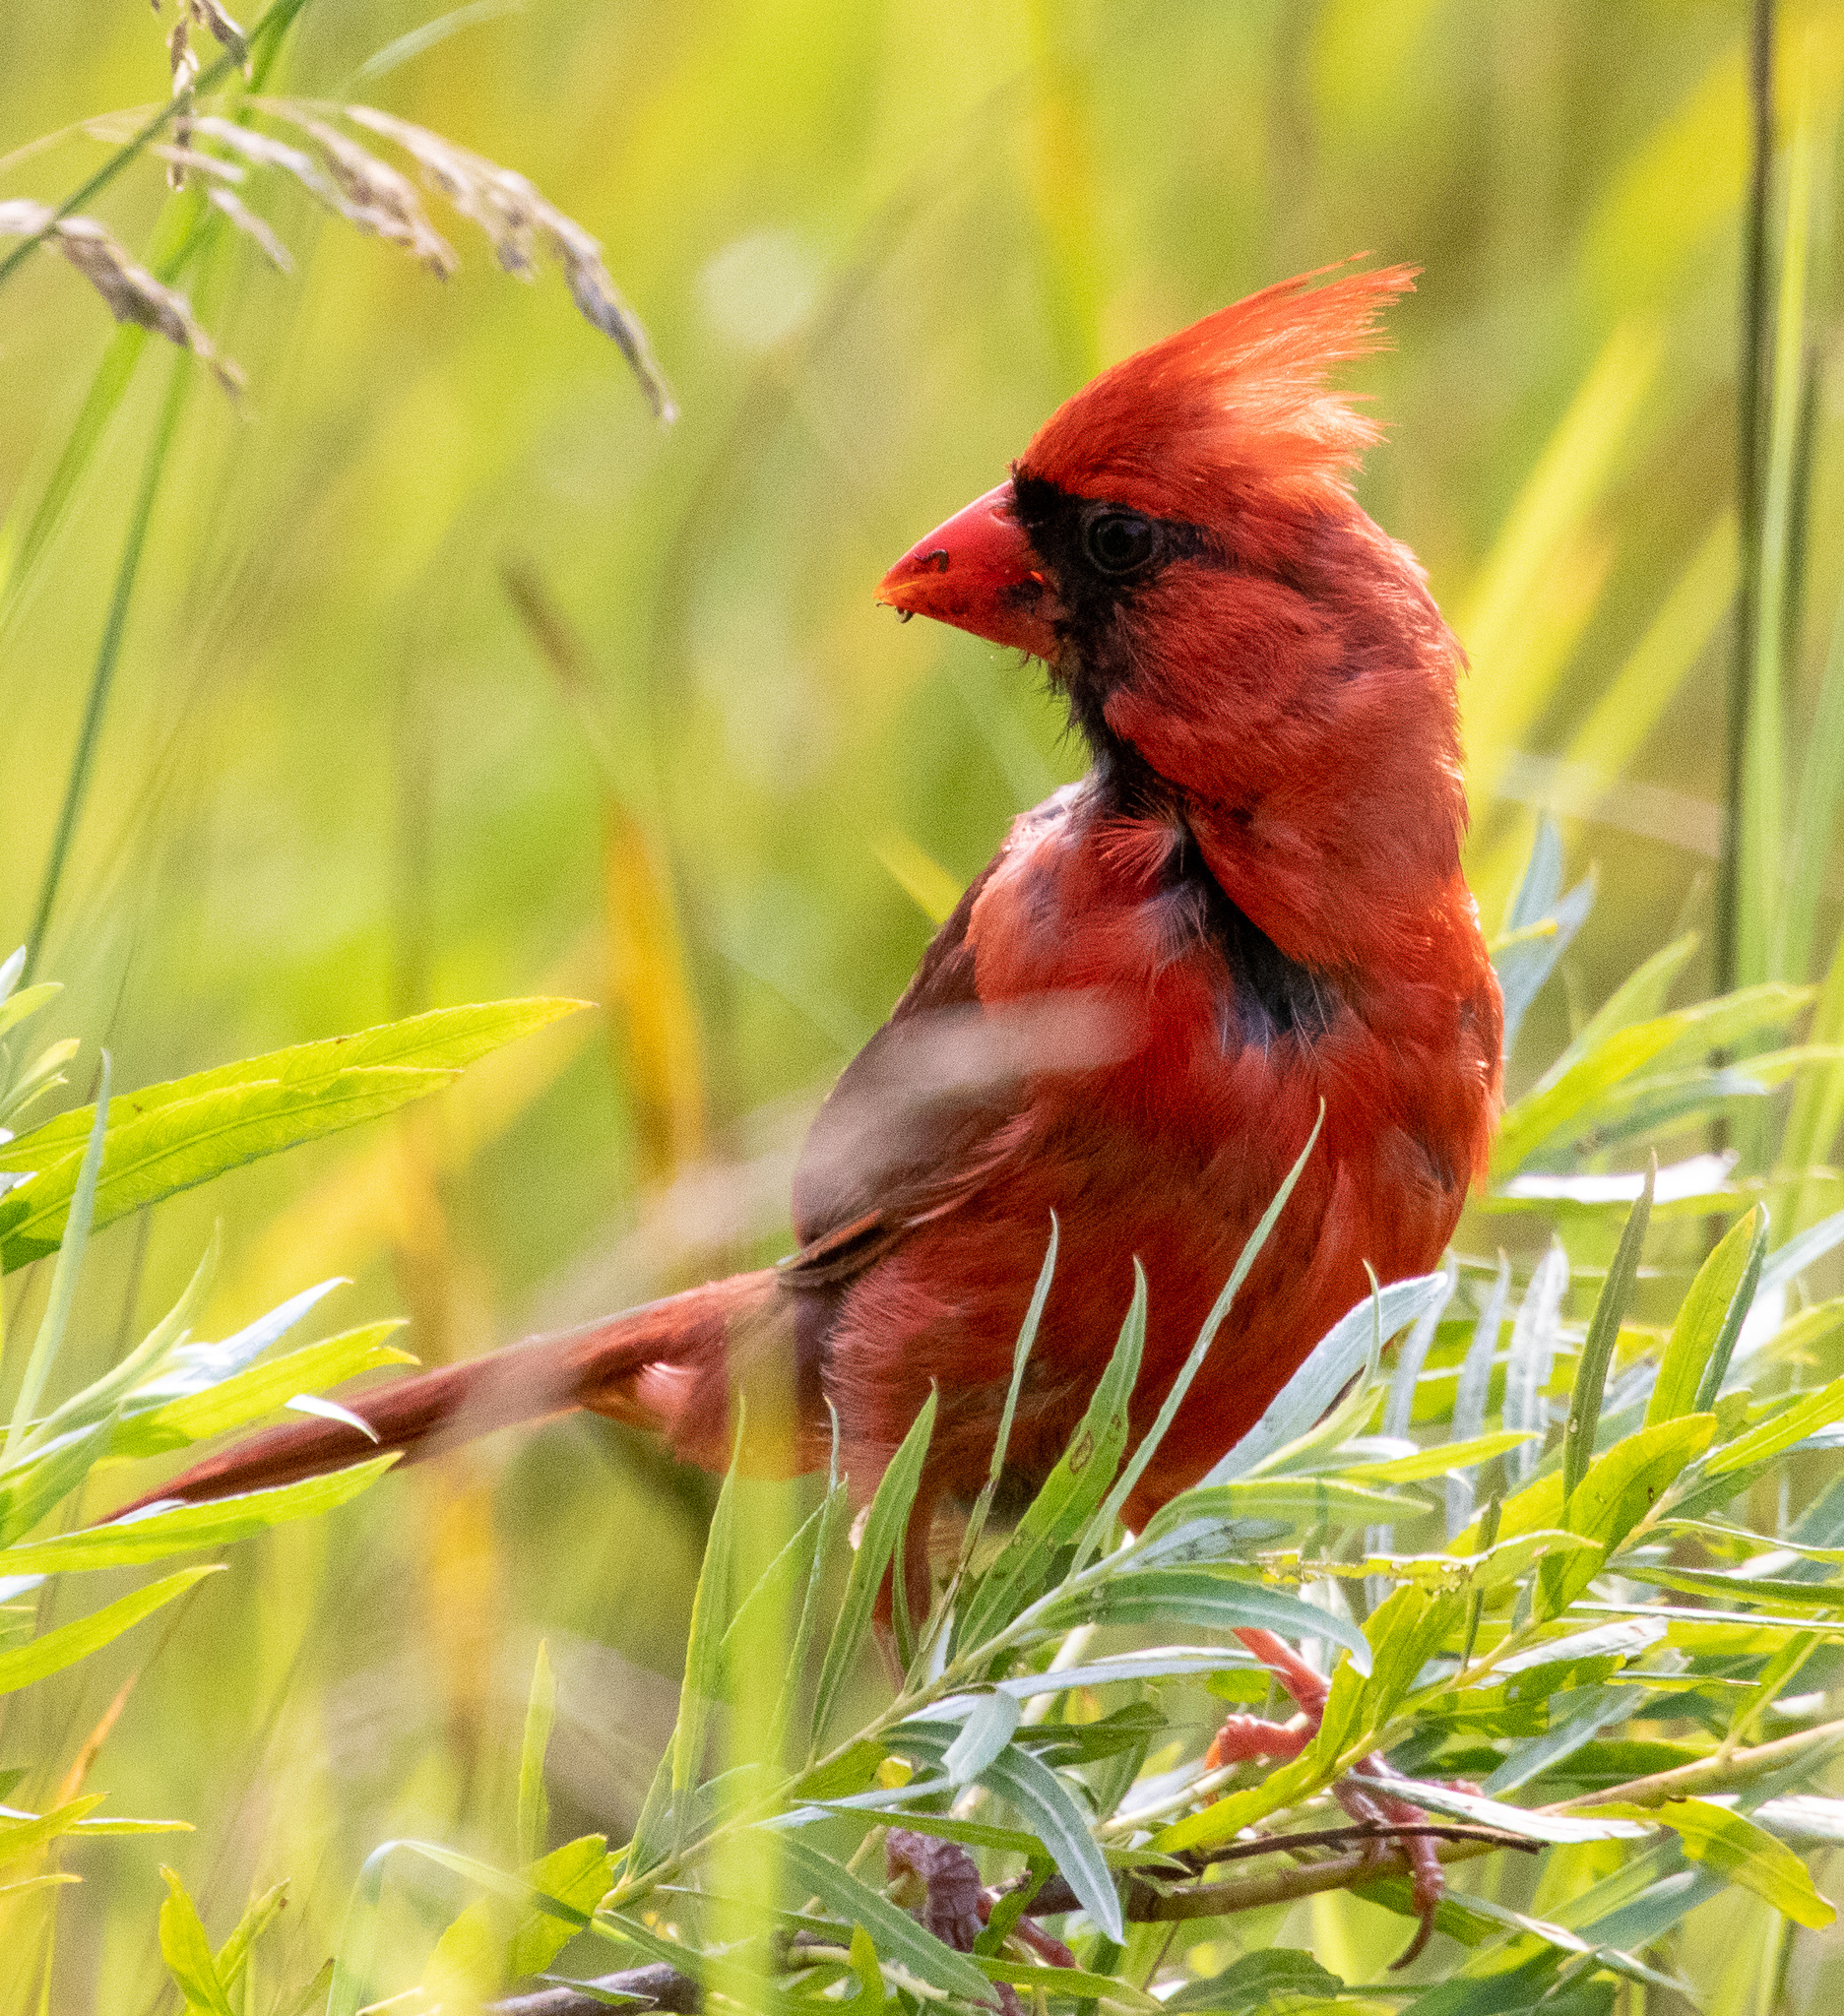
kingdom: Animalia
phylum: Chordata
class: Aves
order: Passeriformes
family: Cardinalidae
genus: Cardinalis
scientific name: Cardinalis cardinalis
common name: Northern cardinal
